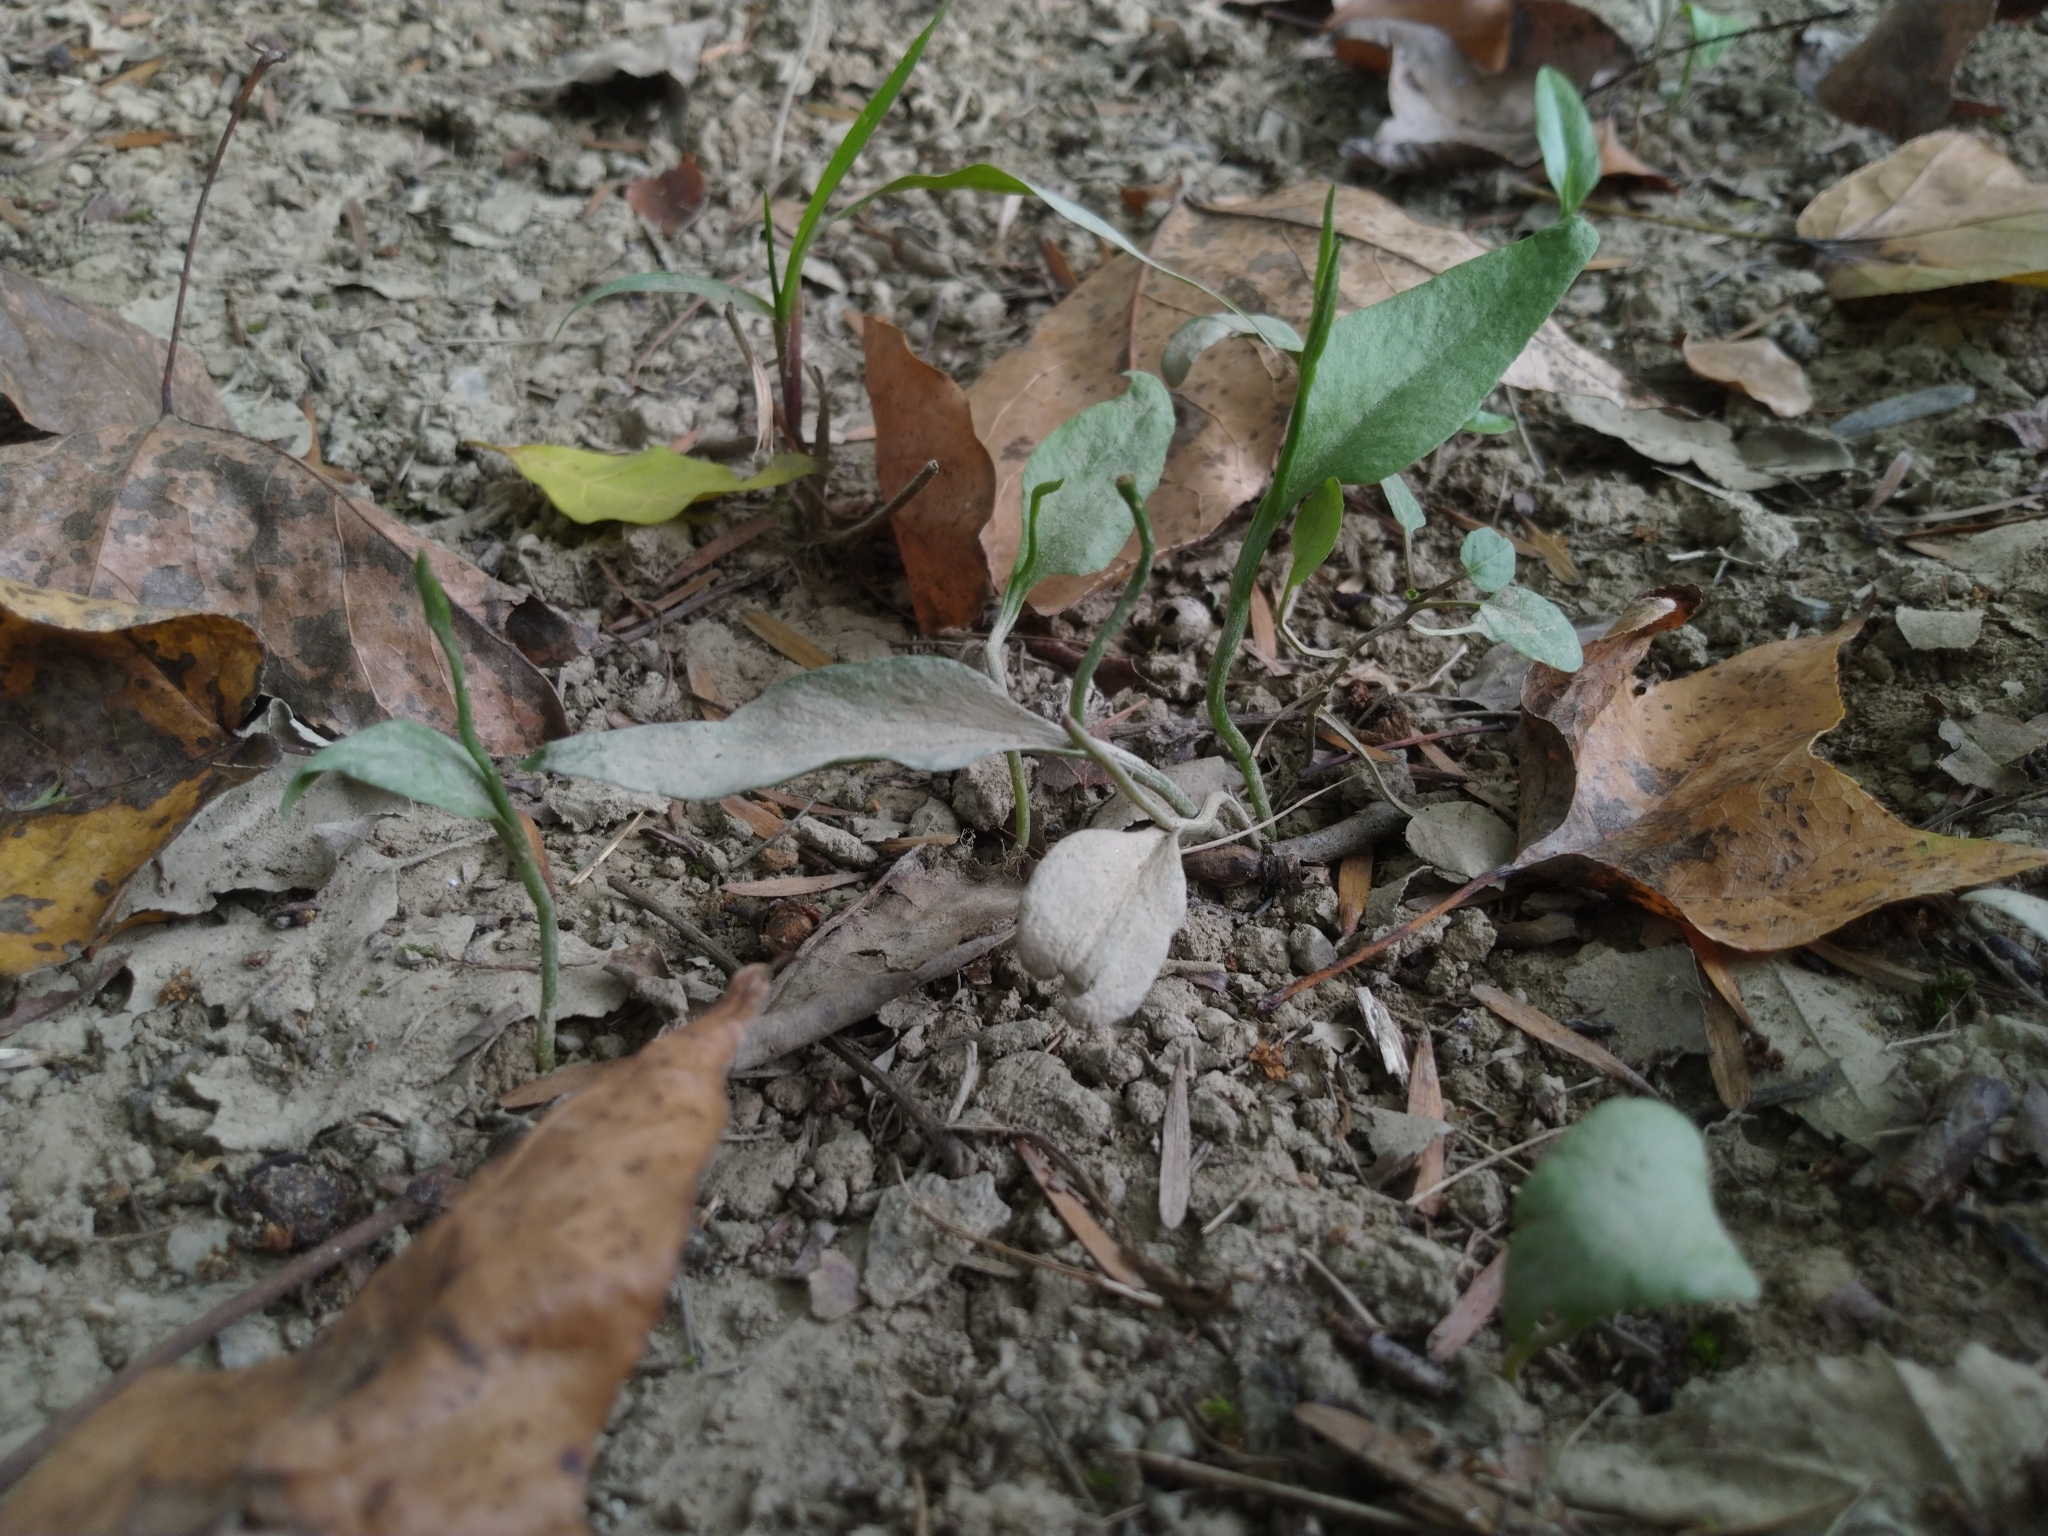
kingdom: Plantae
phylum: Tracheophyta
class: Polypodiopsida
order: Ophioglossales
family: Ophioglossaceae
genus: Ophioglossum
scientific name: Ophioglossum petiolatum
